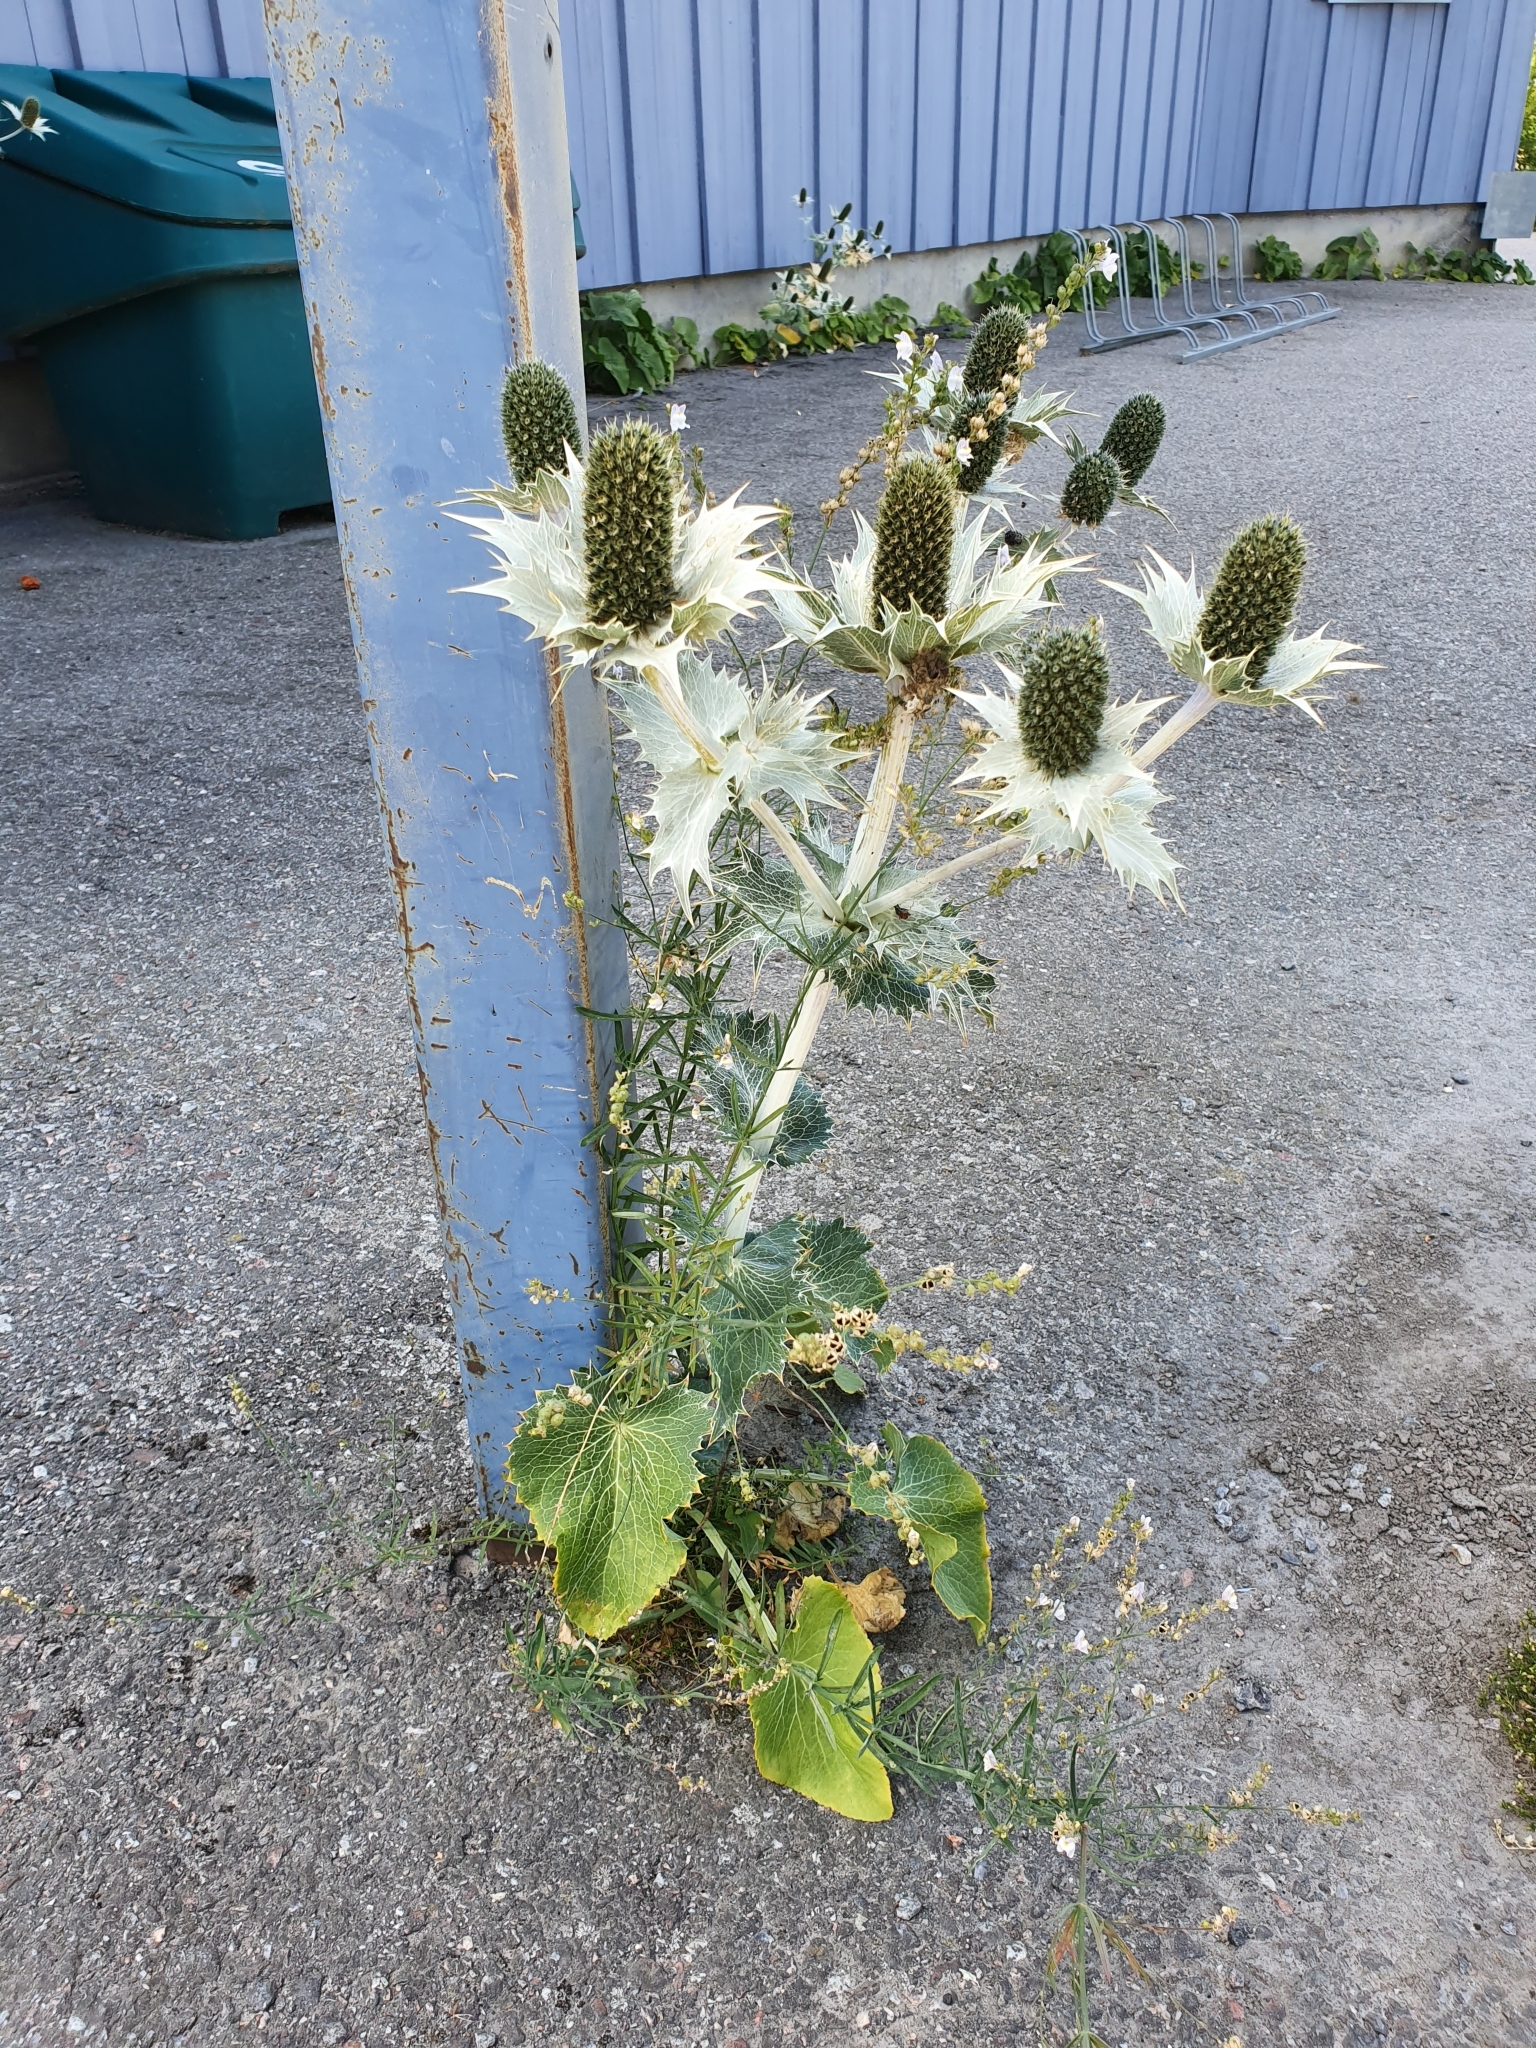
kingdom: Plantae
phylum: Tracheophyta
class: Magnoliopsida
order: Apiales
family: Apiaceae
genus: Eryngium
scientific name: Eryngium giganteum
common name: Tall eryngo
